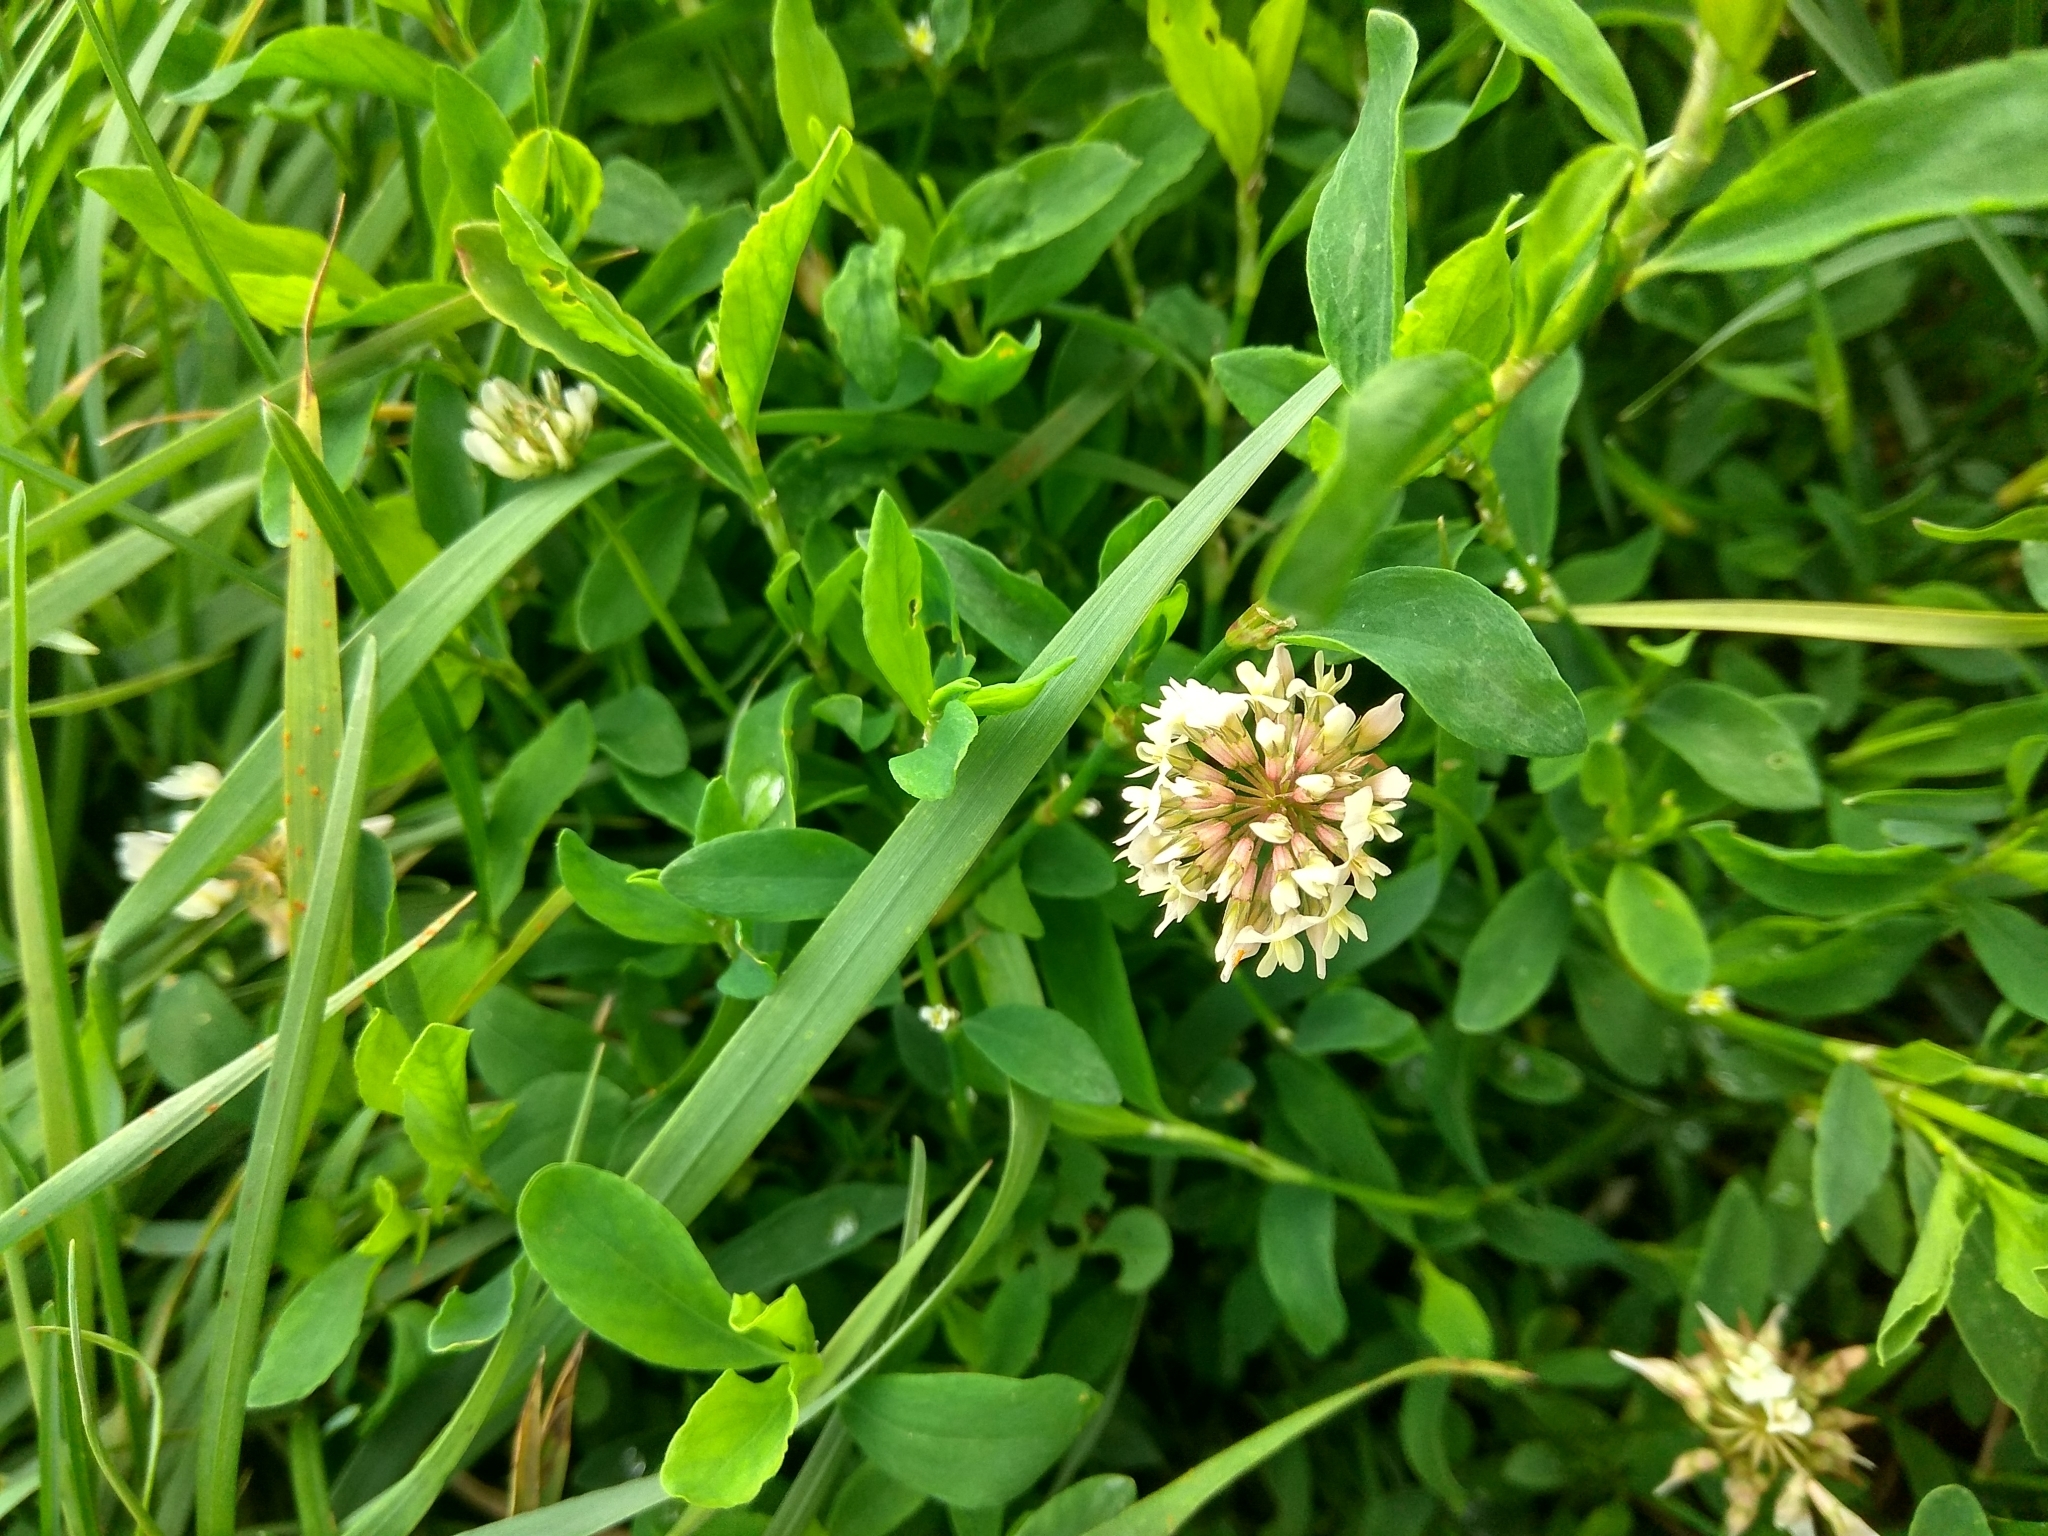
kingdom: Plantae
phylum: Tracheophyta
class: Magnoliopsida
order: Fabales
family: Fabaceae
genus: Trifolium
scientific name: Trifolium repens
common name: White clover
